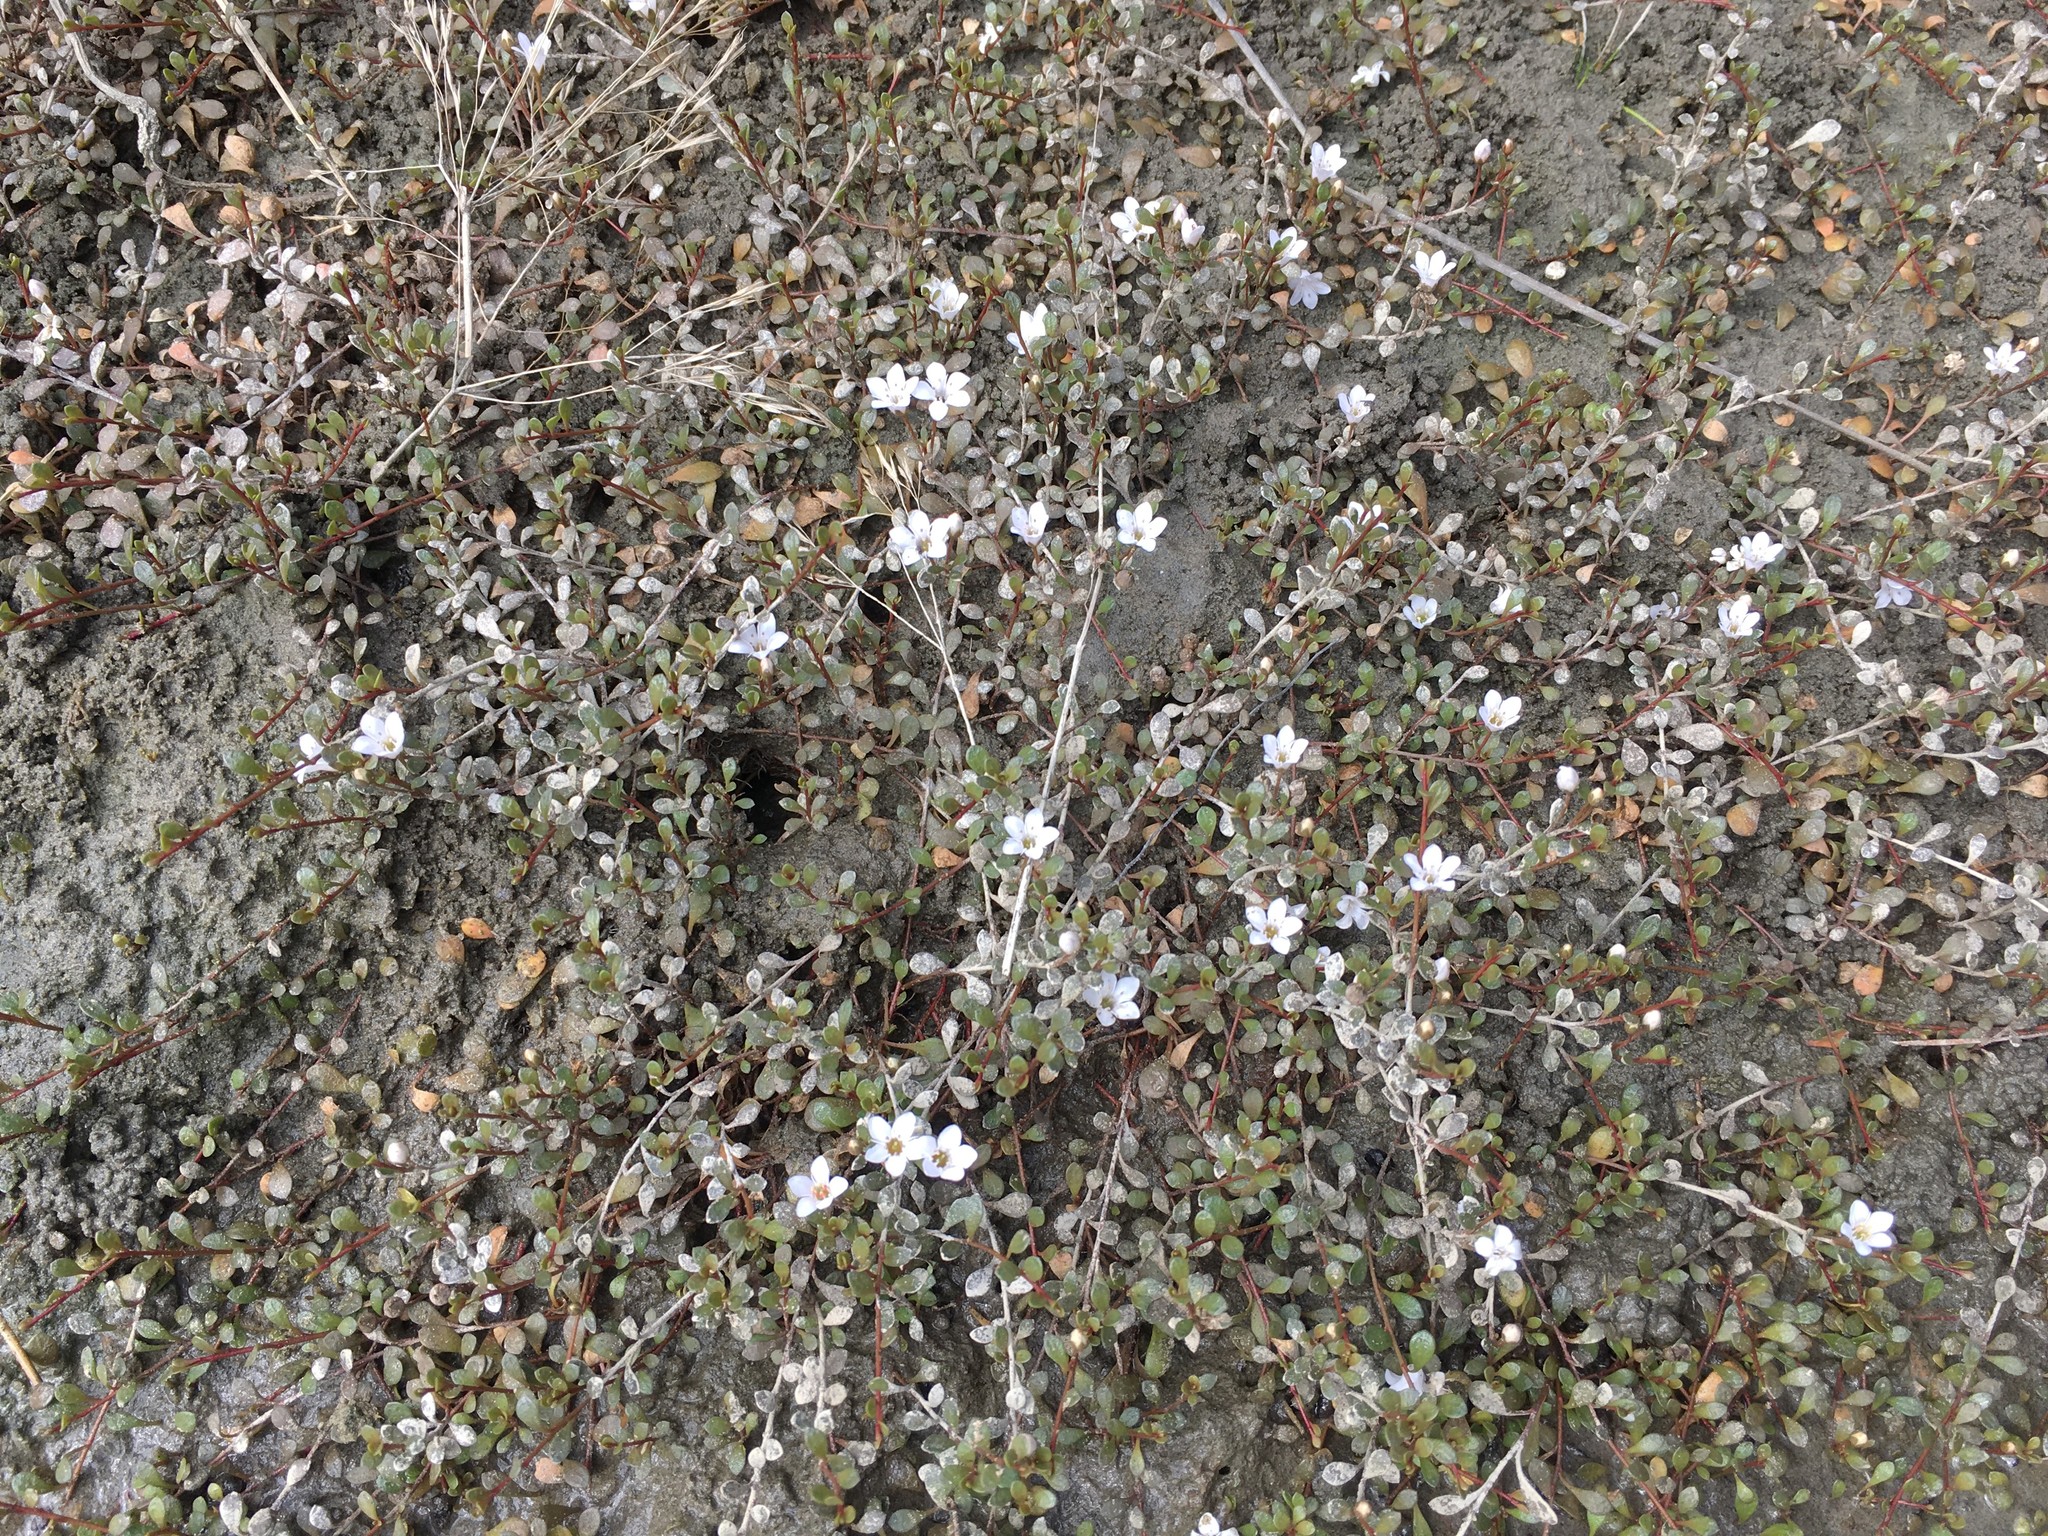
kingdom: Plantae
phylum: Tracheophyta
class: Magnoliopsida
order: Ericales
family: Primulaceae
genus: Samolus
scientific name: Samolus repens
